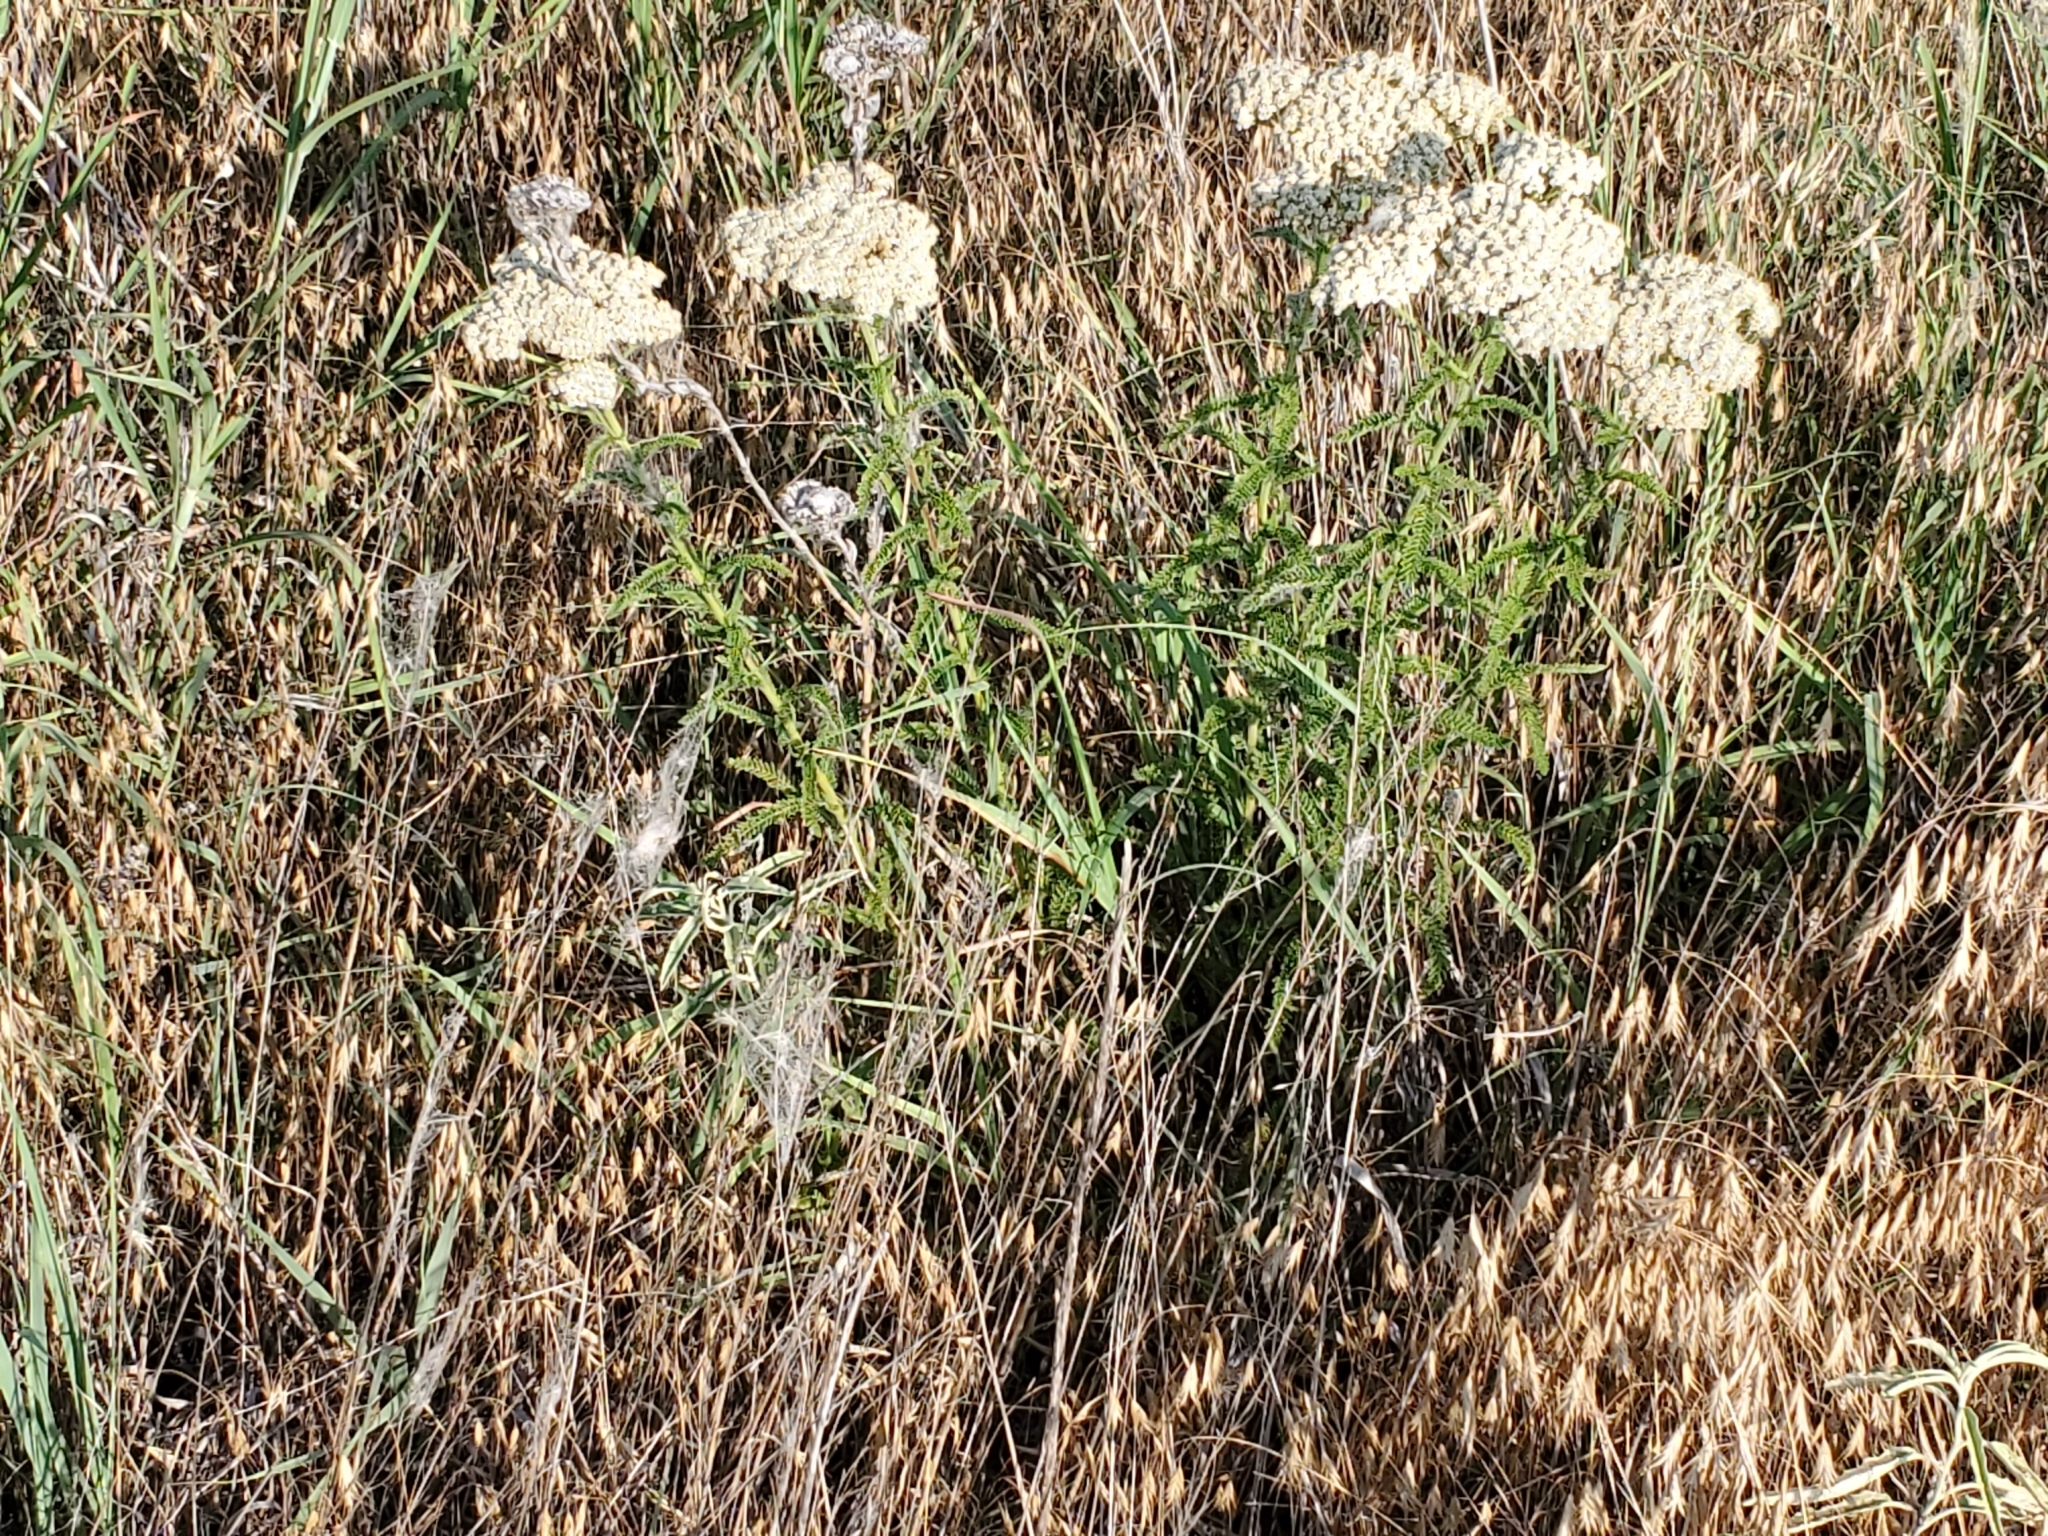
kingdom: Plantae
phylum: Tracheophyta
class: Magnoliopsida
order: Asterales
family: Asteraceae
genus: Achillea
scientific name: Achillea millefolium
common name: Yarrow
